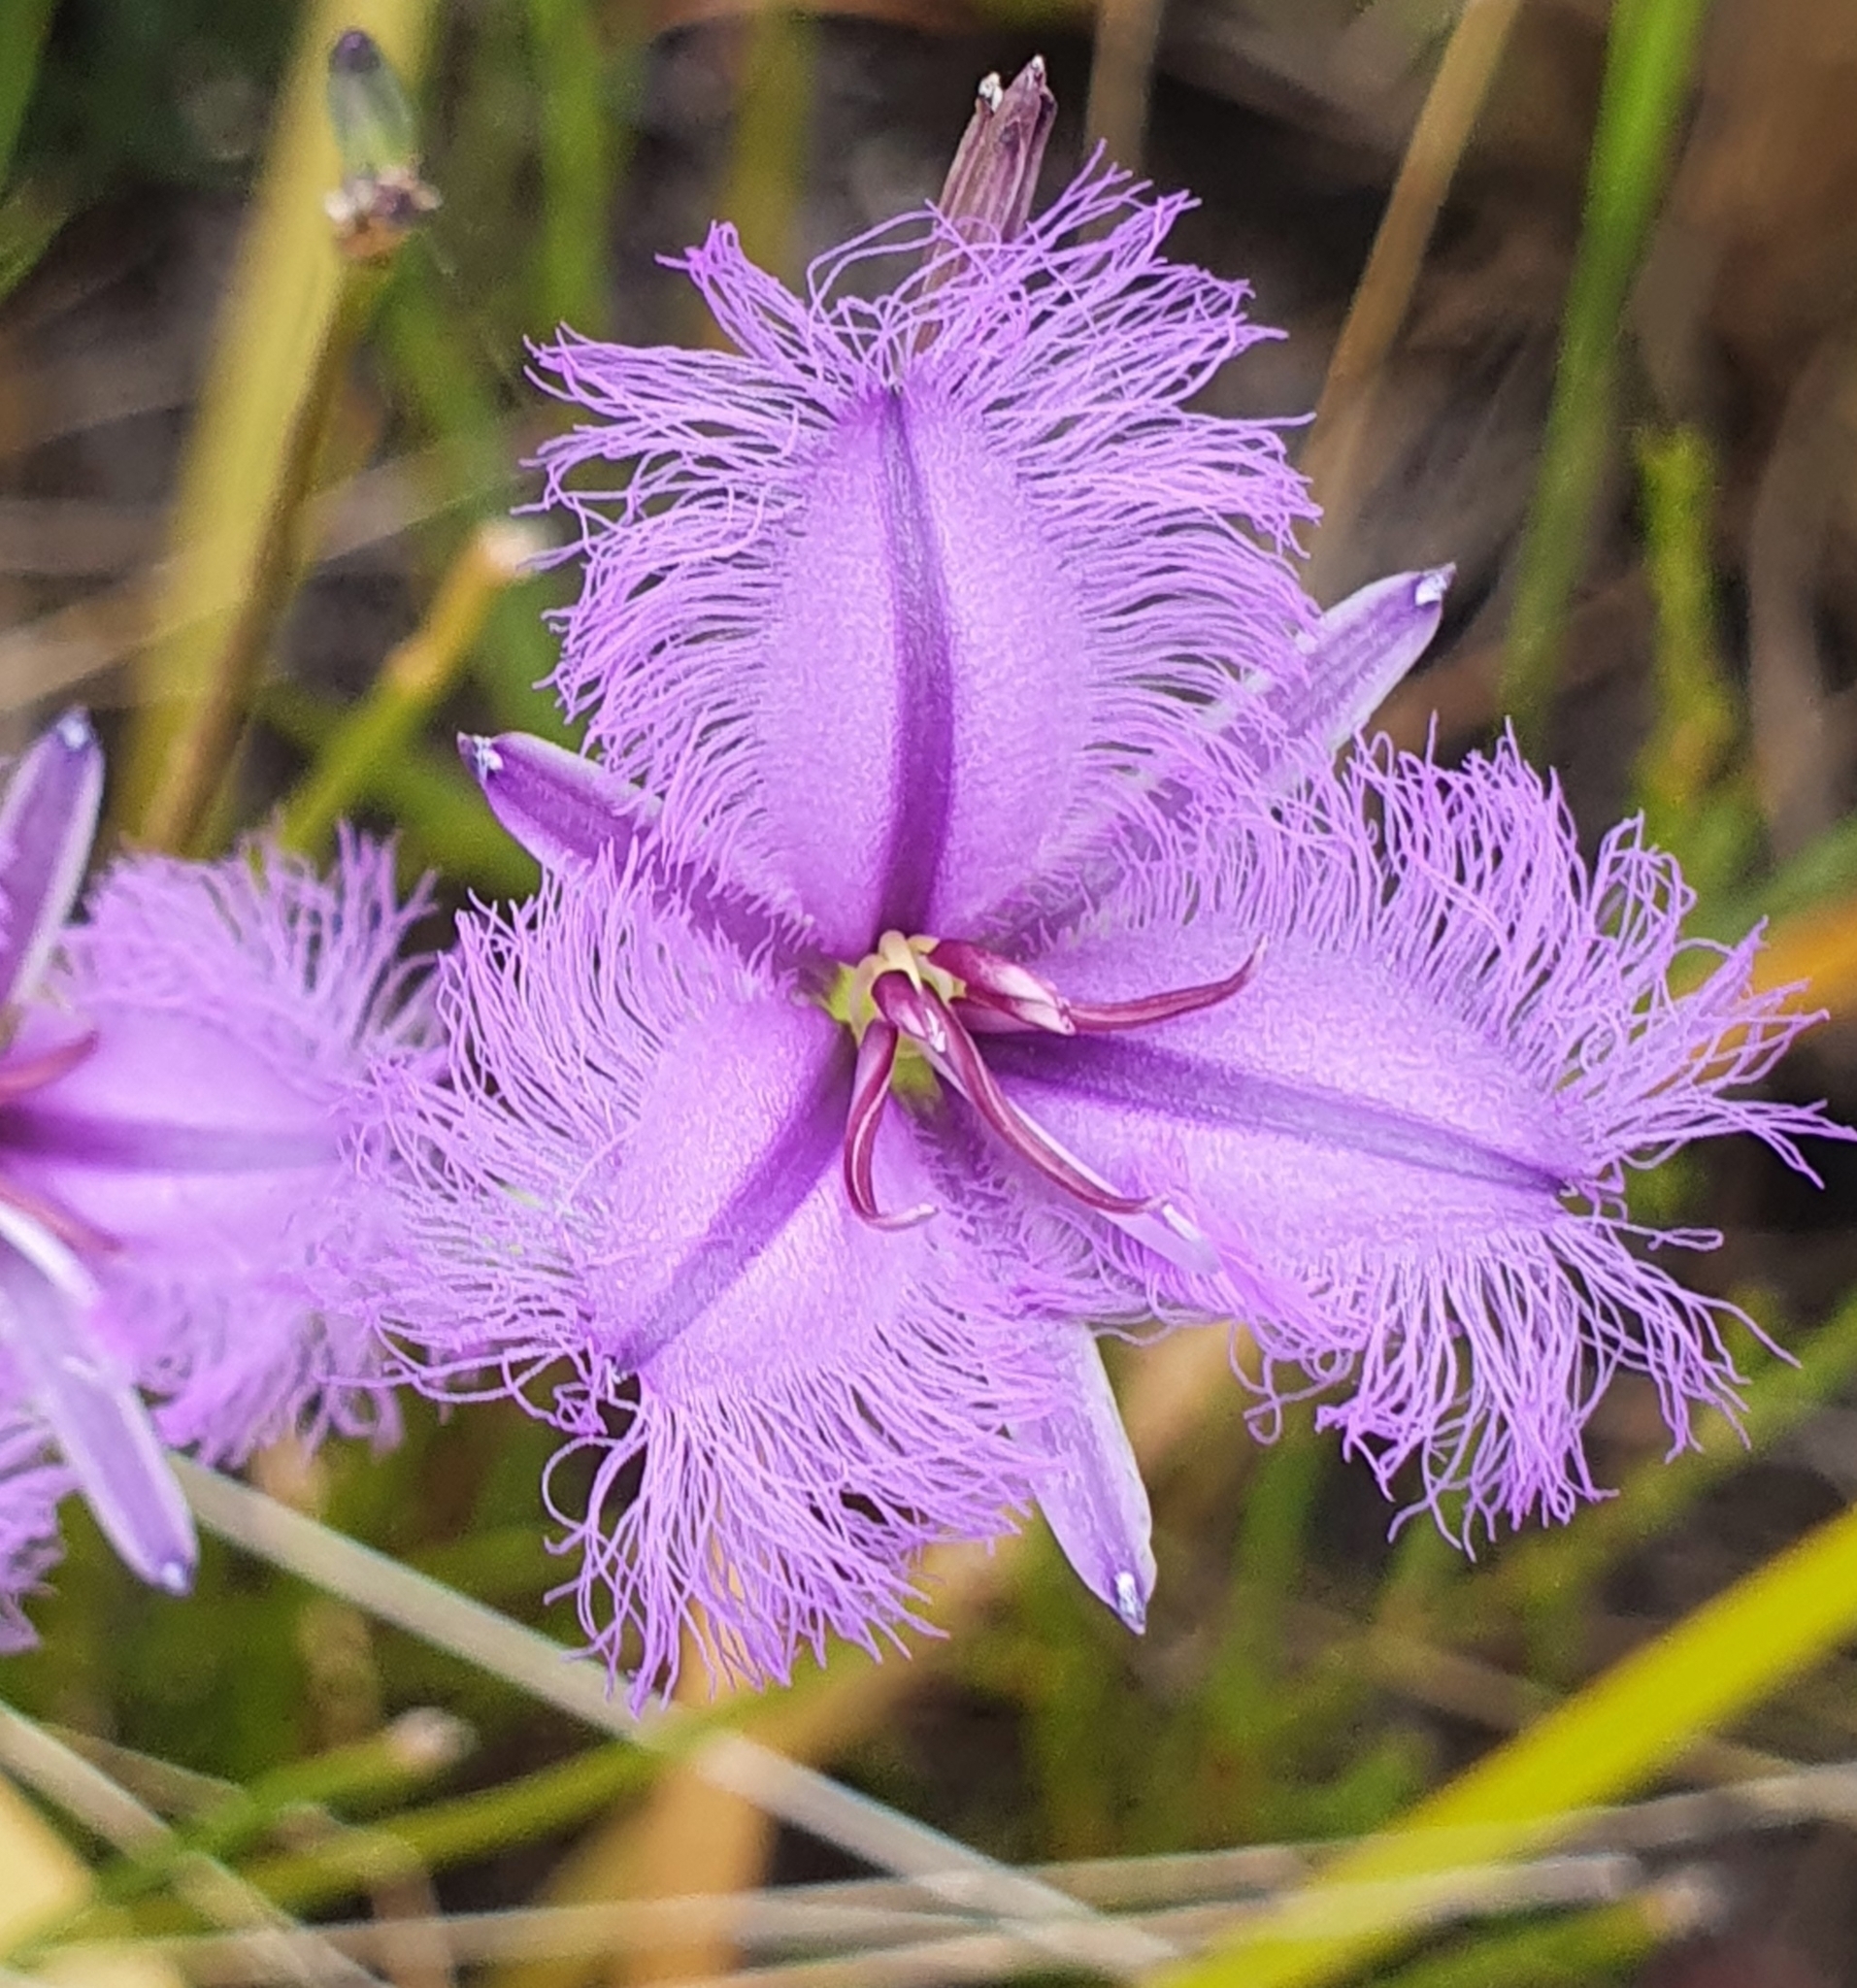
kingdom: Plantae
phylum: Tracheophyta
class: Liliopsida
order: Asparagales
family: Asparagaceae
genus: Thysanotus
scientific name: Thysanotus tuberosus
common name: Common fringed-lily
